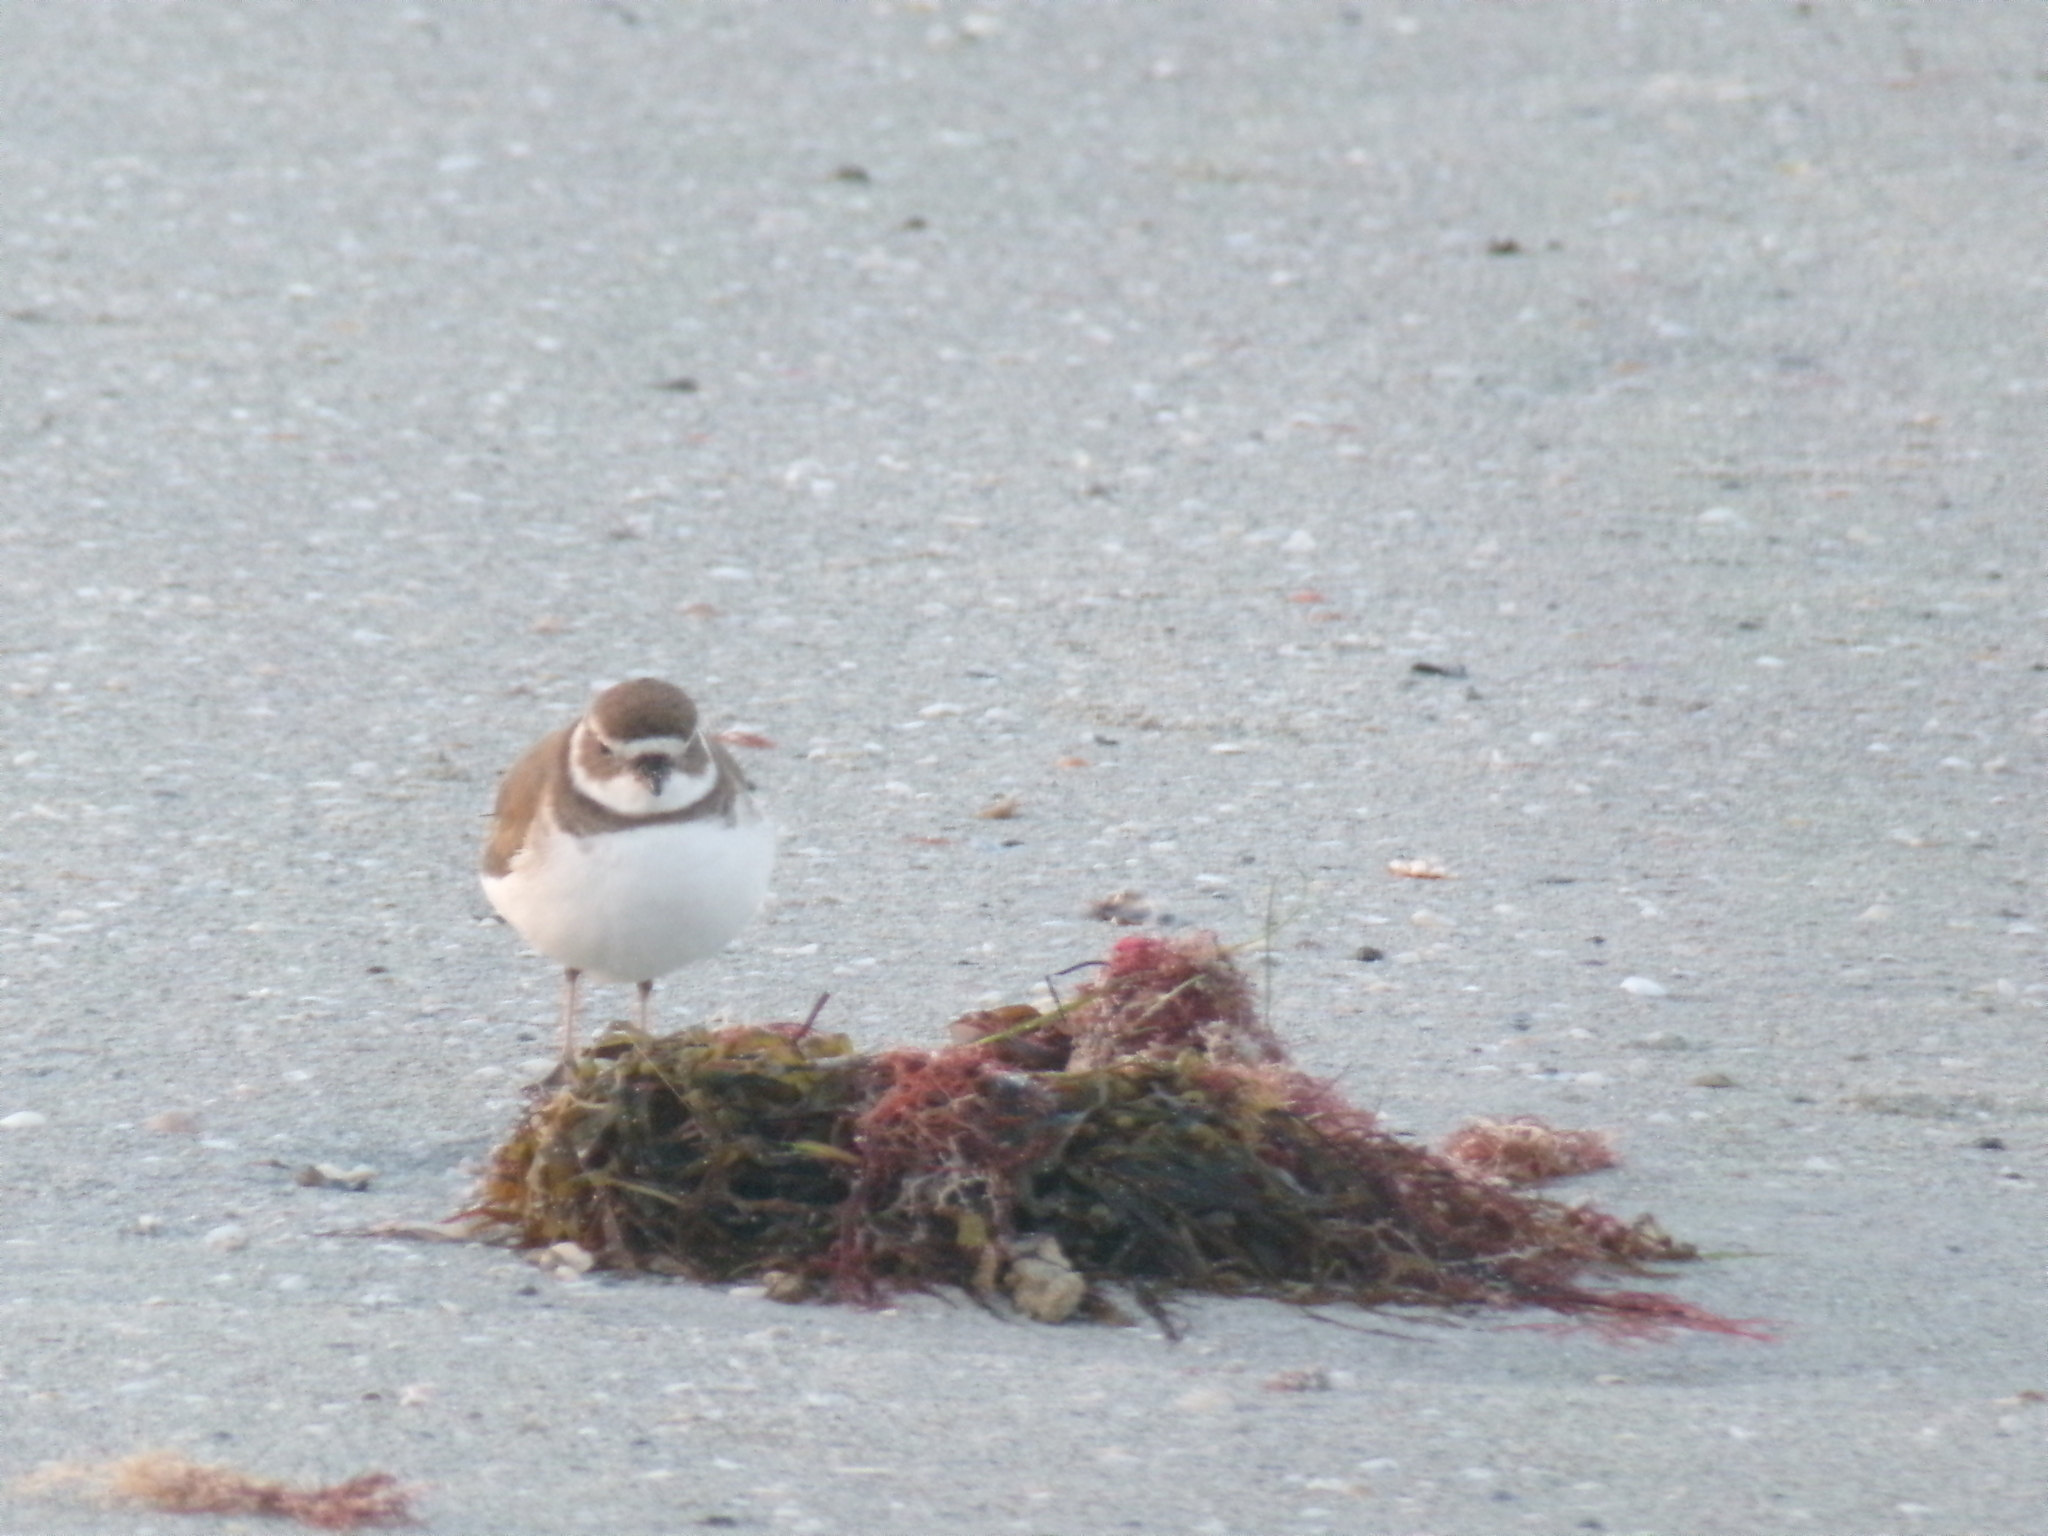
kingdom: Animalia
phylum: Chordata
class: Aves
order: Charadriiformes
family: Charadriidae
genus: Charadrius
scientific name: Charadrius semipalmatus
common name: Semipalmated plover
